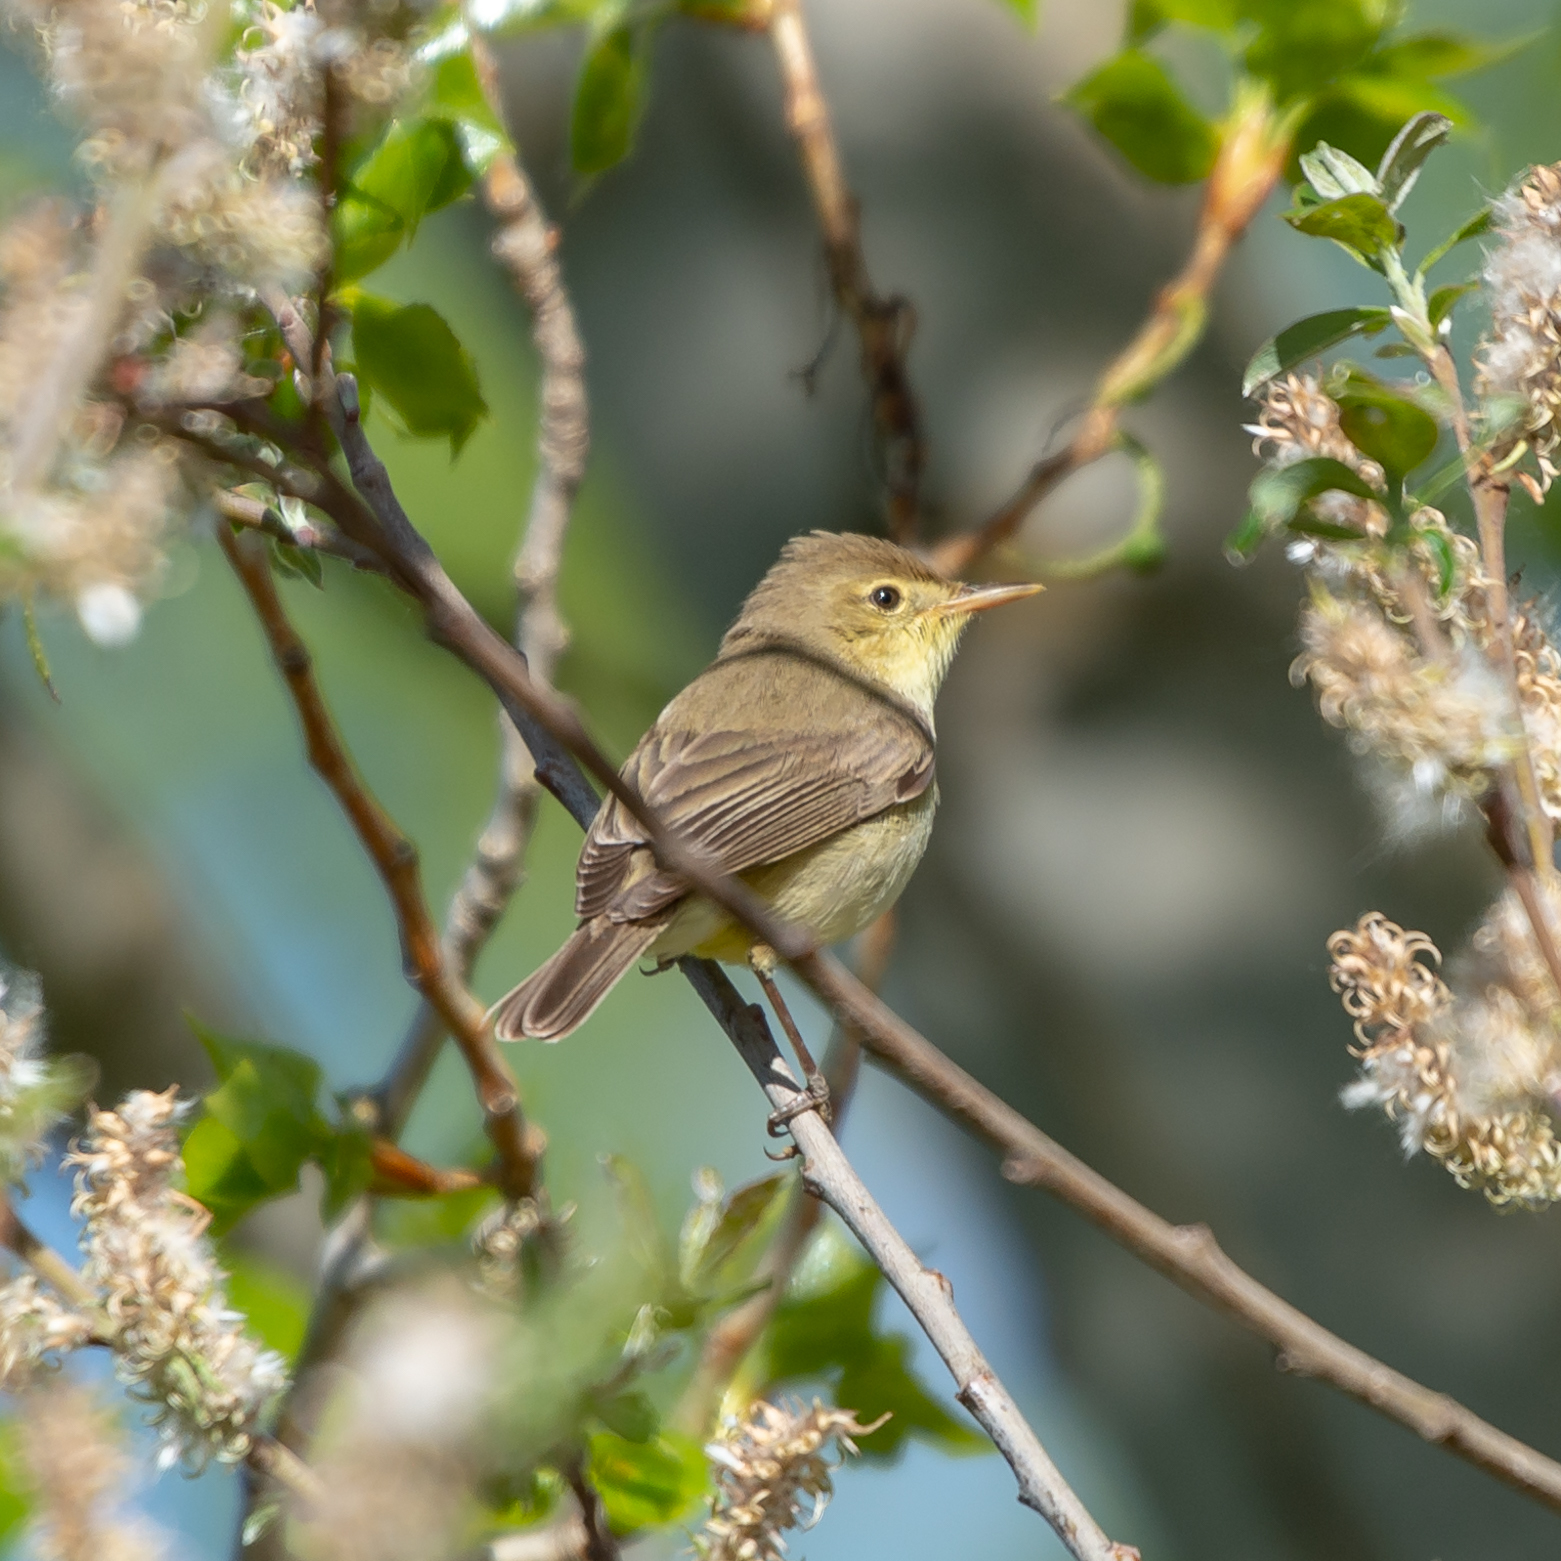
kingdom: Animalia
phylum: Chordata
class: Aves
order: Passeriformes
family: Acrocephalidae
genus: Hippolais
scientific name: Hippolais polyglotta
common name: Melodious warbler
